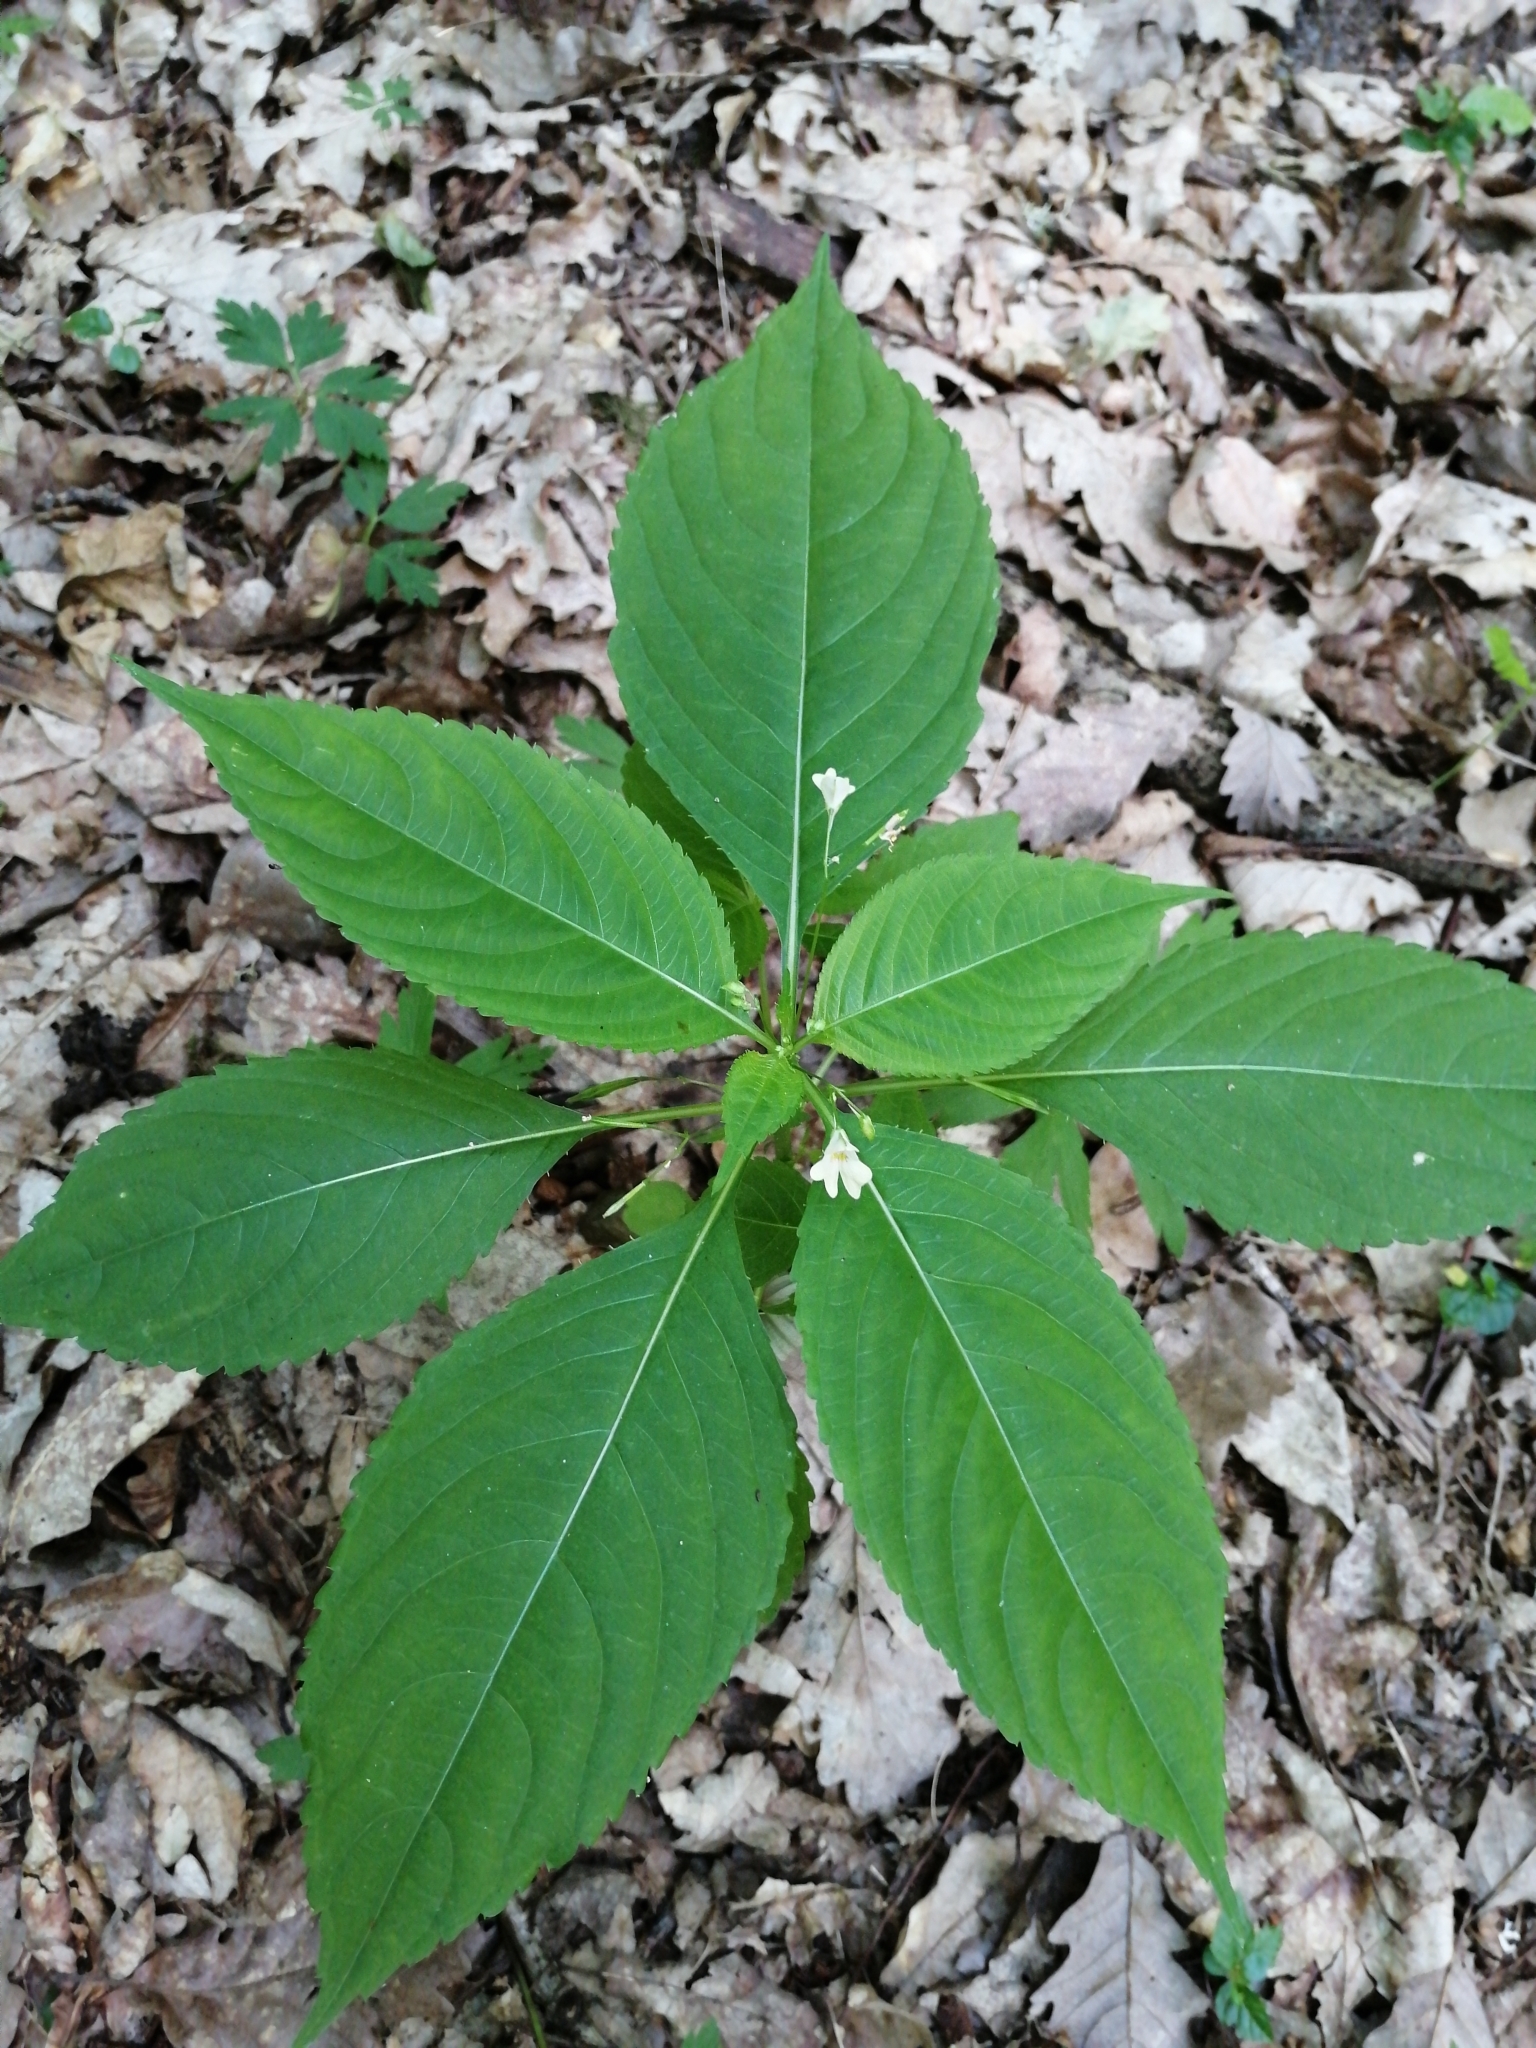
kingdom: Plantae
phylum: Tracheophyta
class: Magnoliopsida
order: Ericales
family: Balsaminaceae
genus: Impatiens
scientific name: Impatiens parviflora
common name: Small balsam
